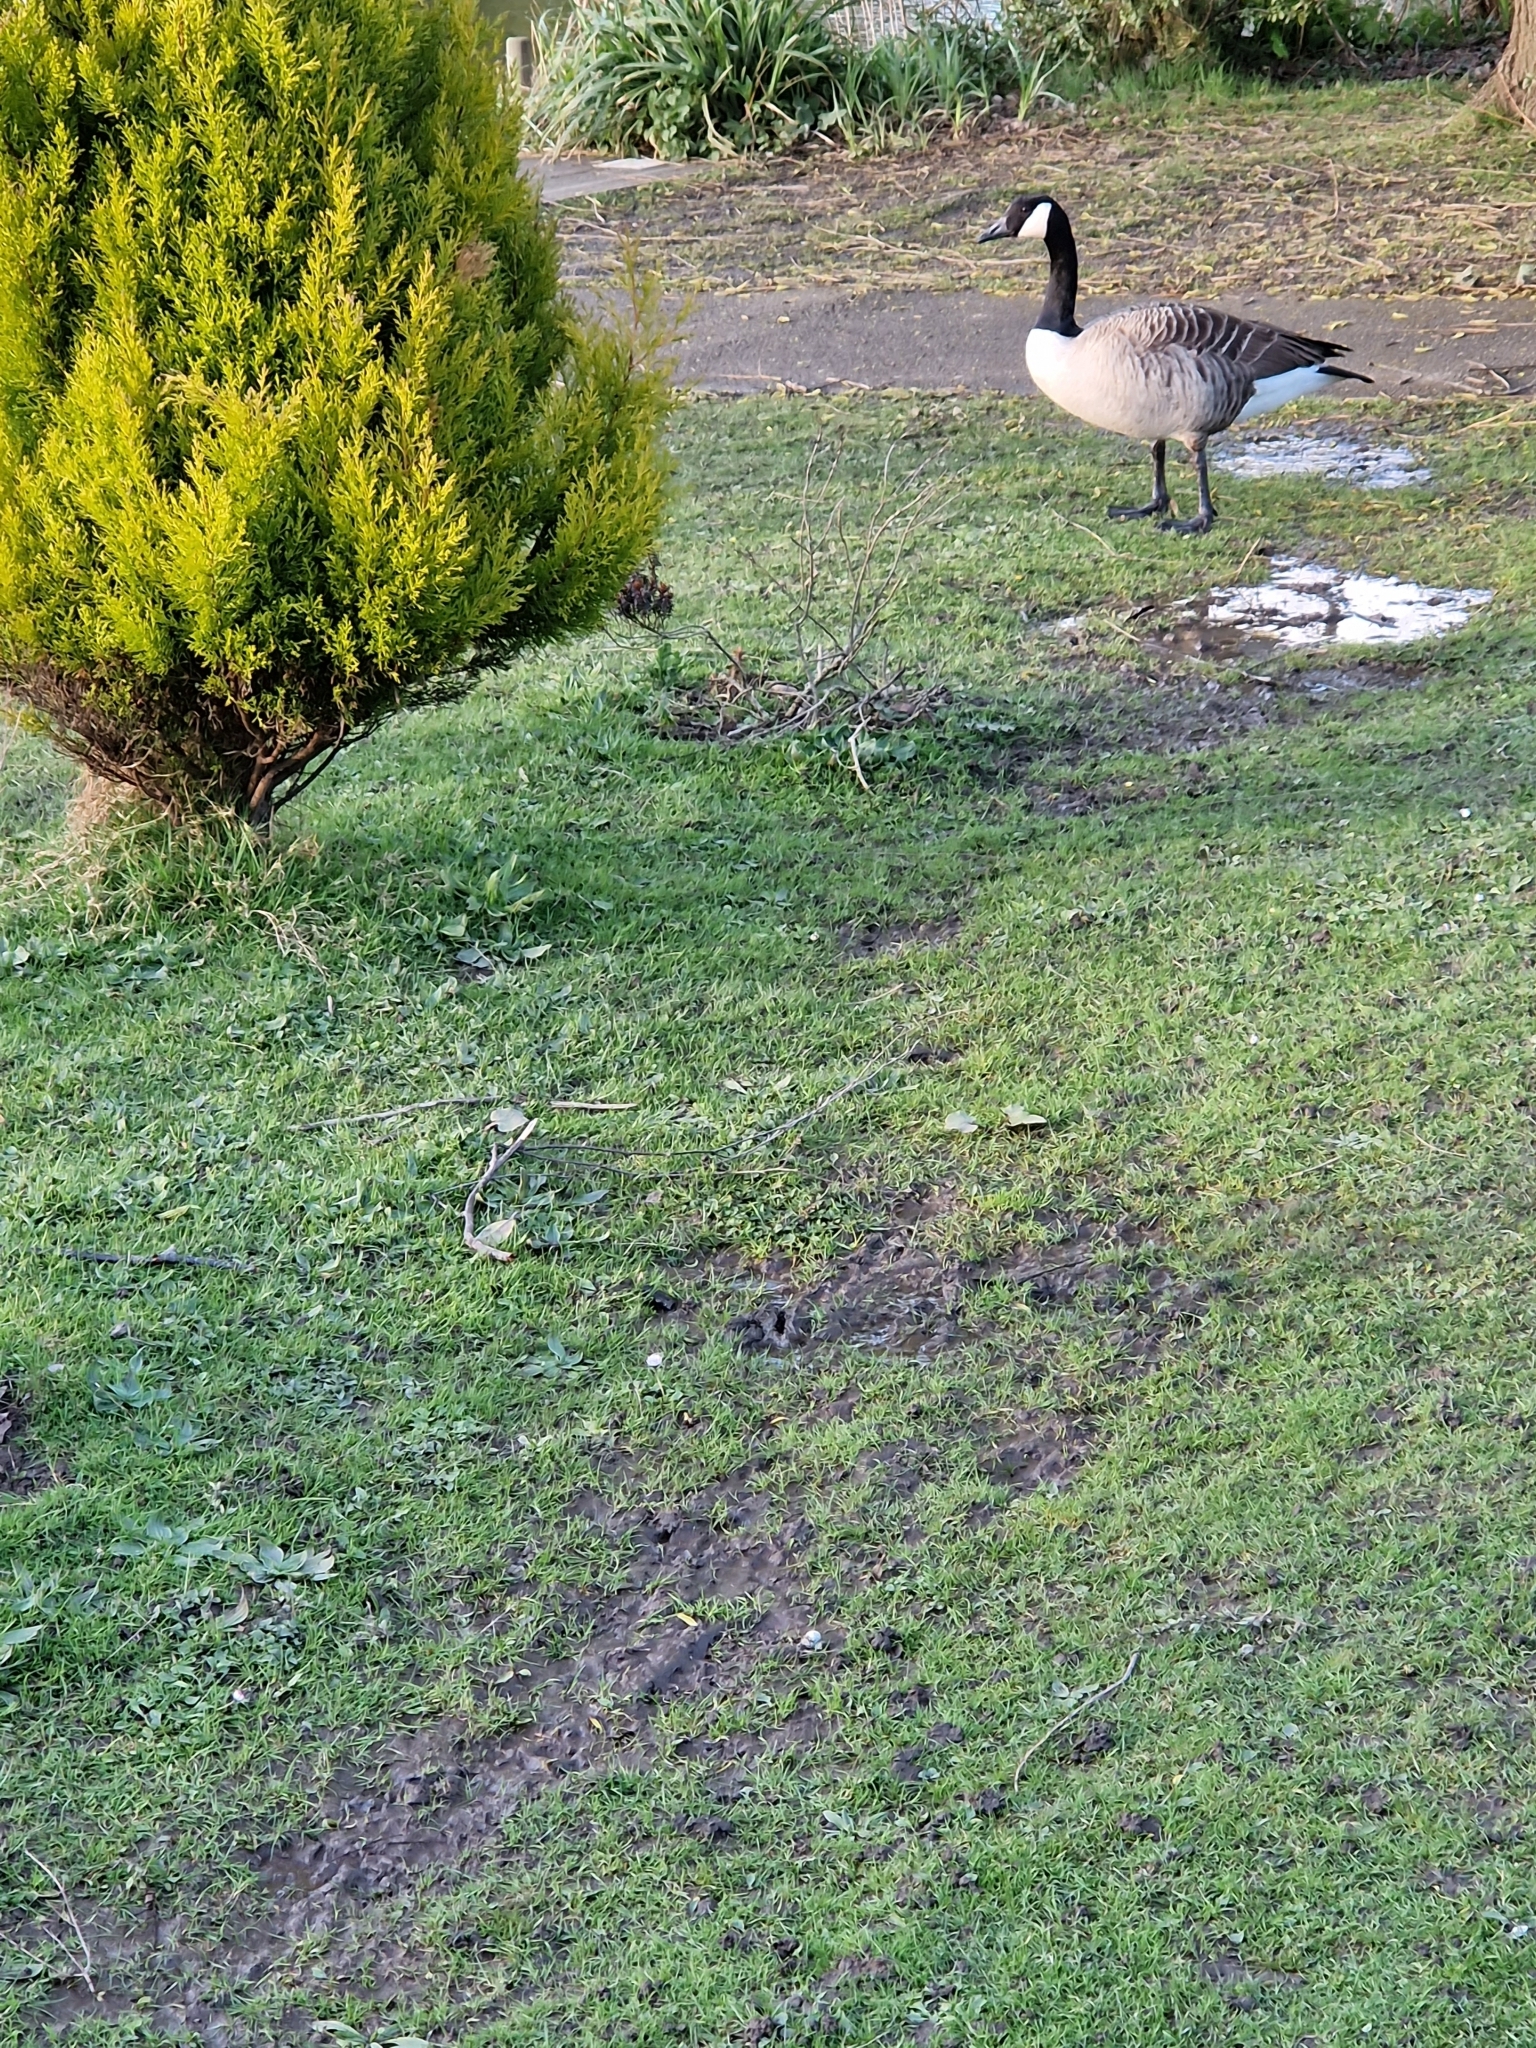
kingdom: Animalia
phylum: Chordata
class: Aves
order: Anseriformes
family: Anatidae
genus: Branta
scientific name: Branta canadensis
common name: Canada goose
